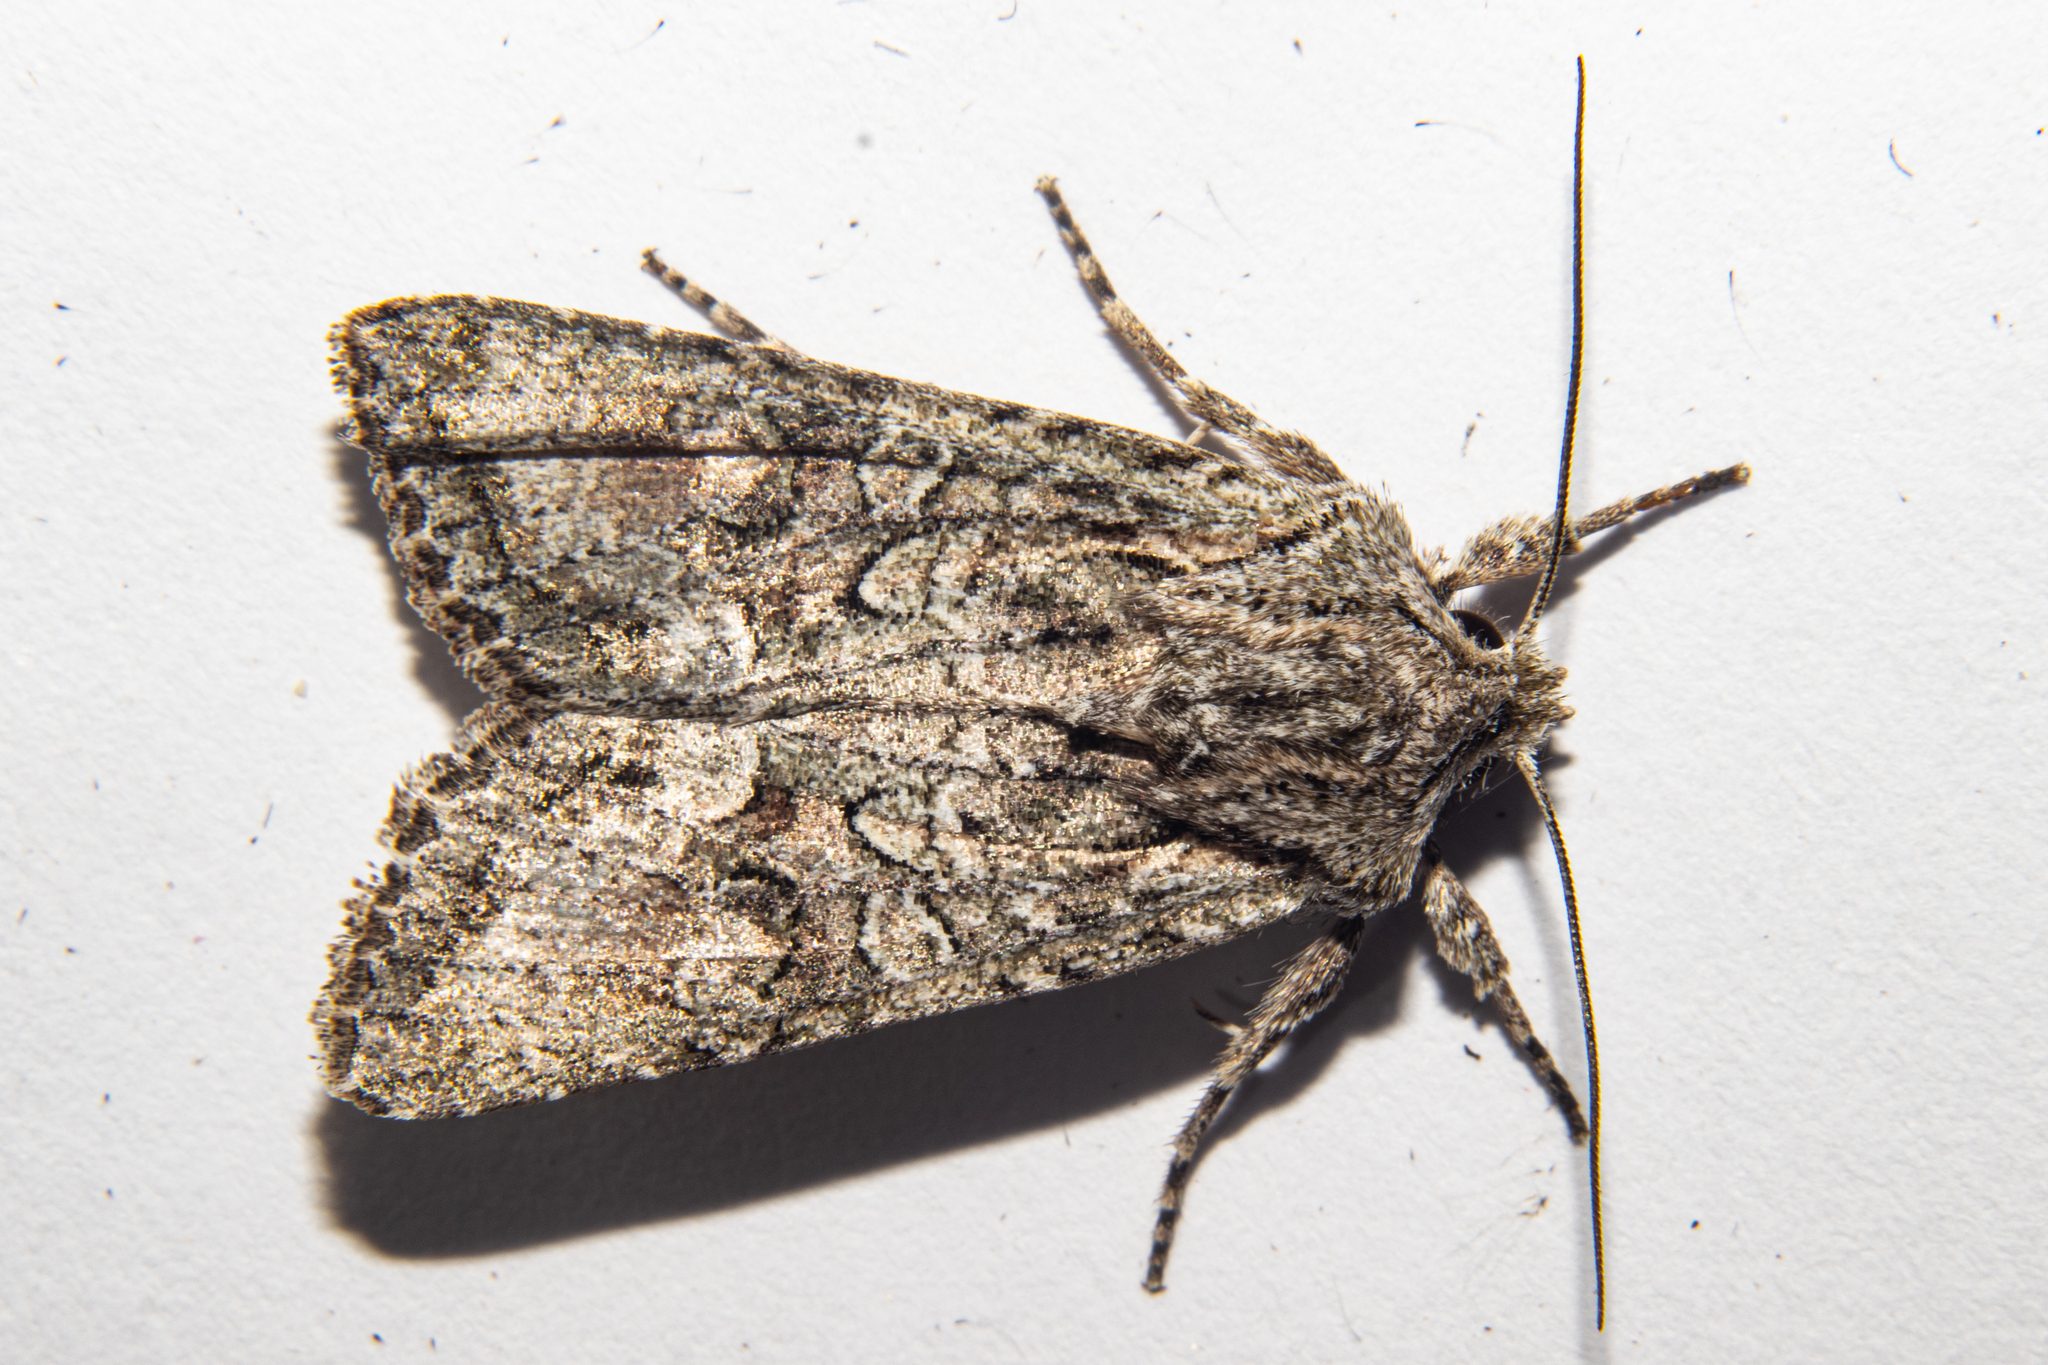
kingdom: Animalia
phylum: Arthropoda
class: Insecta
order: Lepidoptera
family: Noctuidae
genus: Ichneutica
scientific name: Ichneutica mutans
